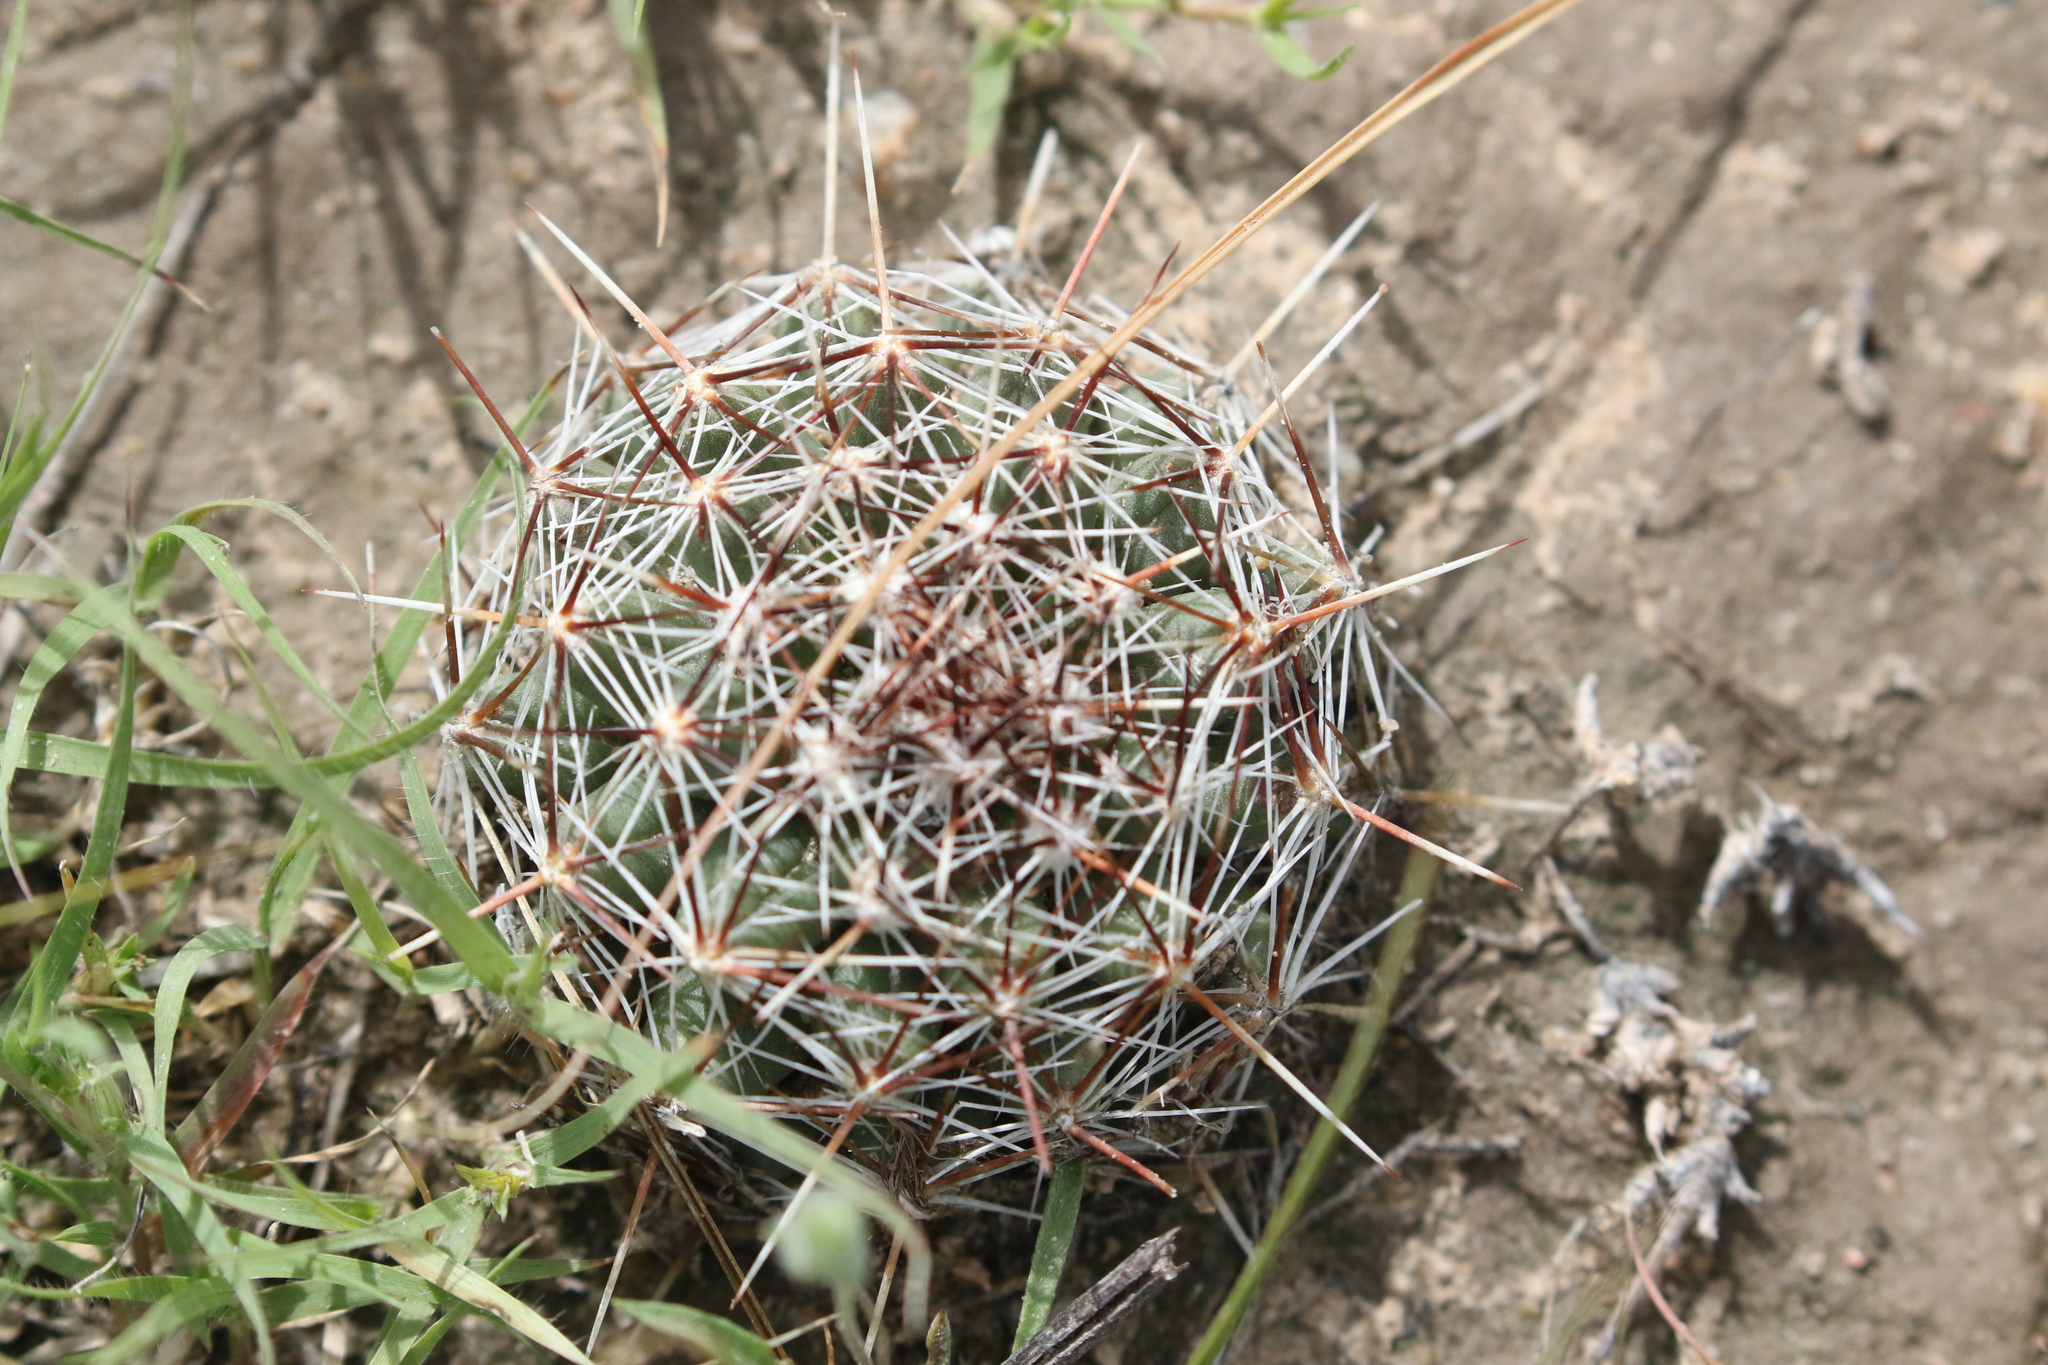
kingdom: Plantae
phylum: Tracheophyta
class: Magnoliopsida
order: Caryophyllales
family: Cactaceae
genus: Pelecyphora
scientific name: Pelecyphora vivipara
